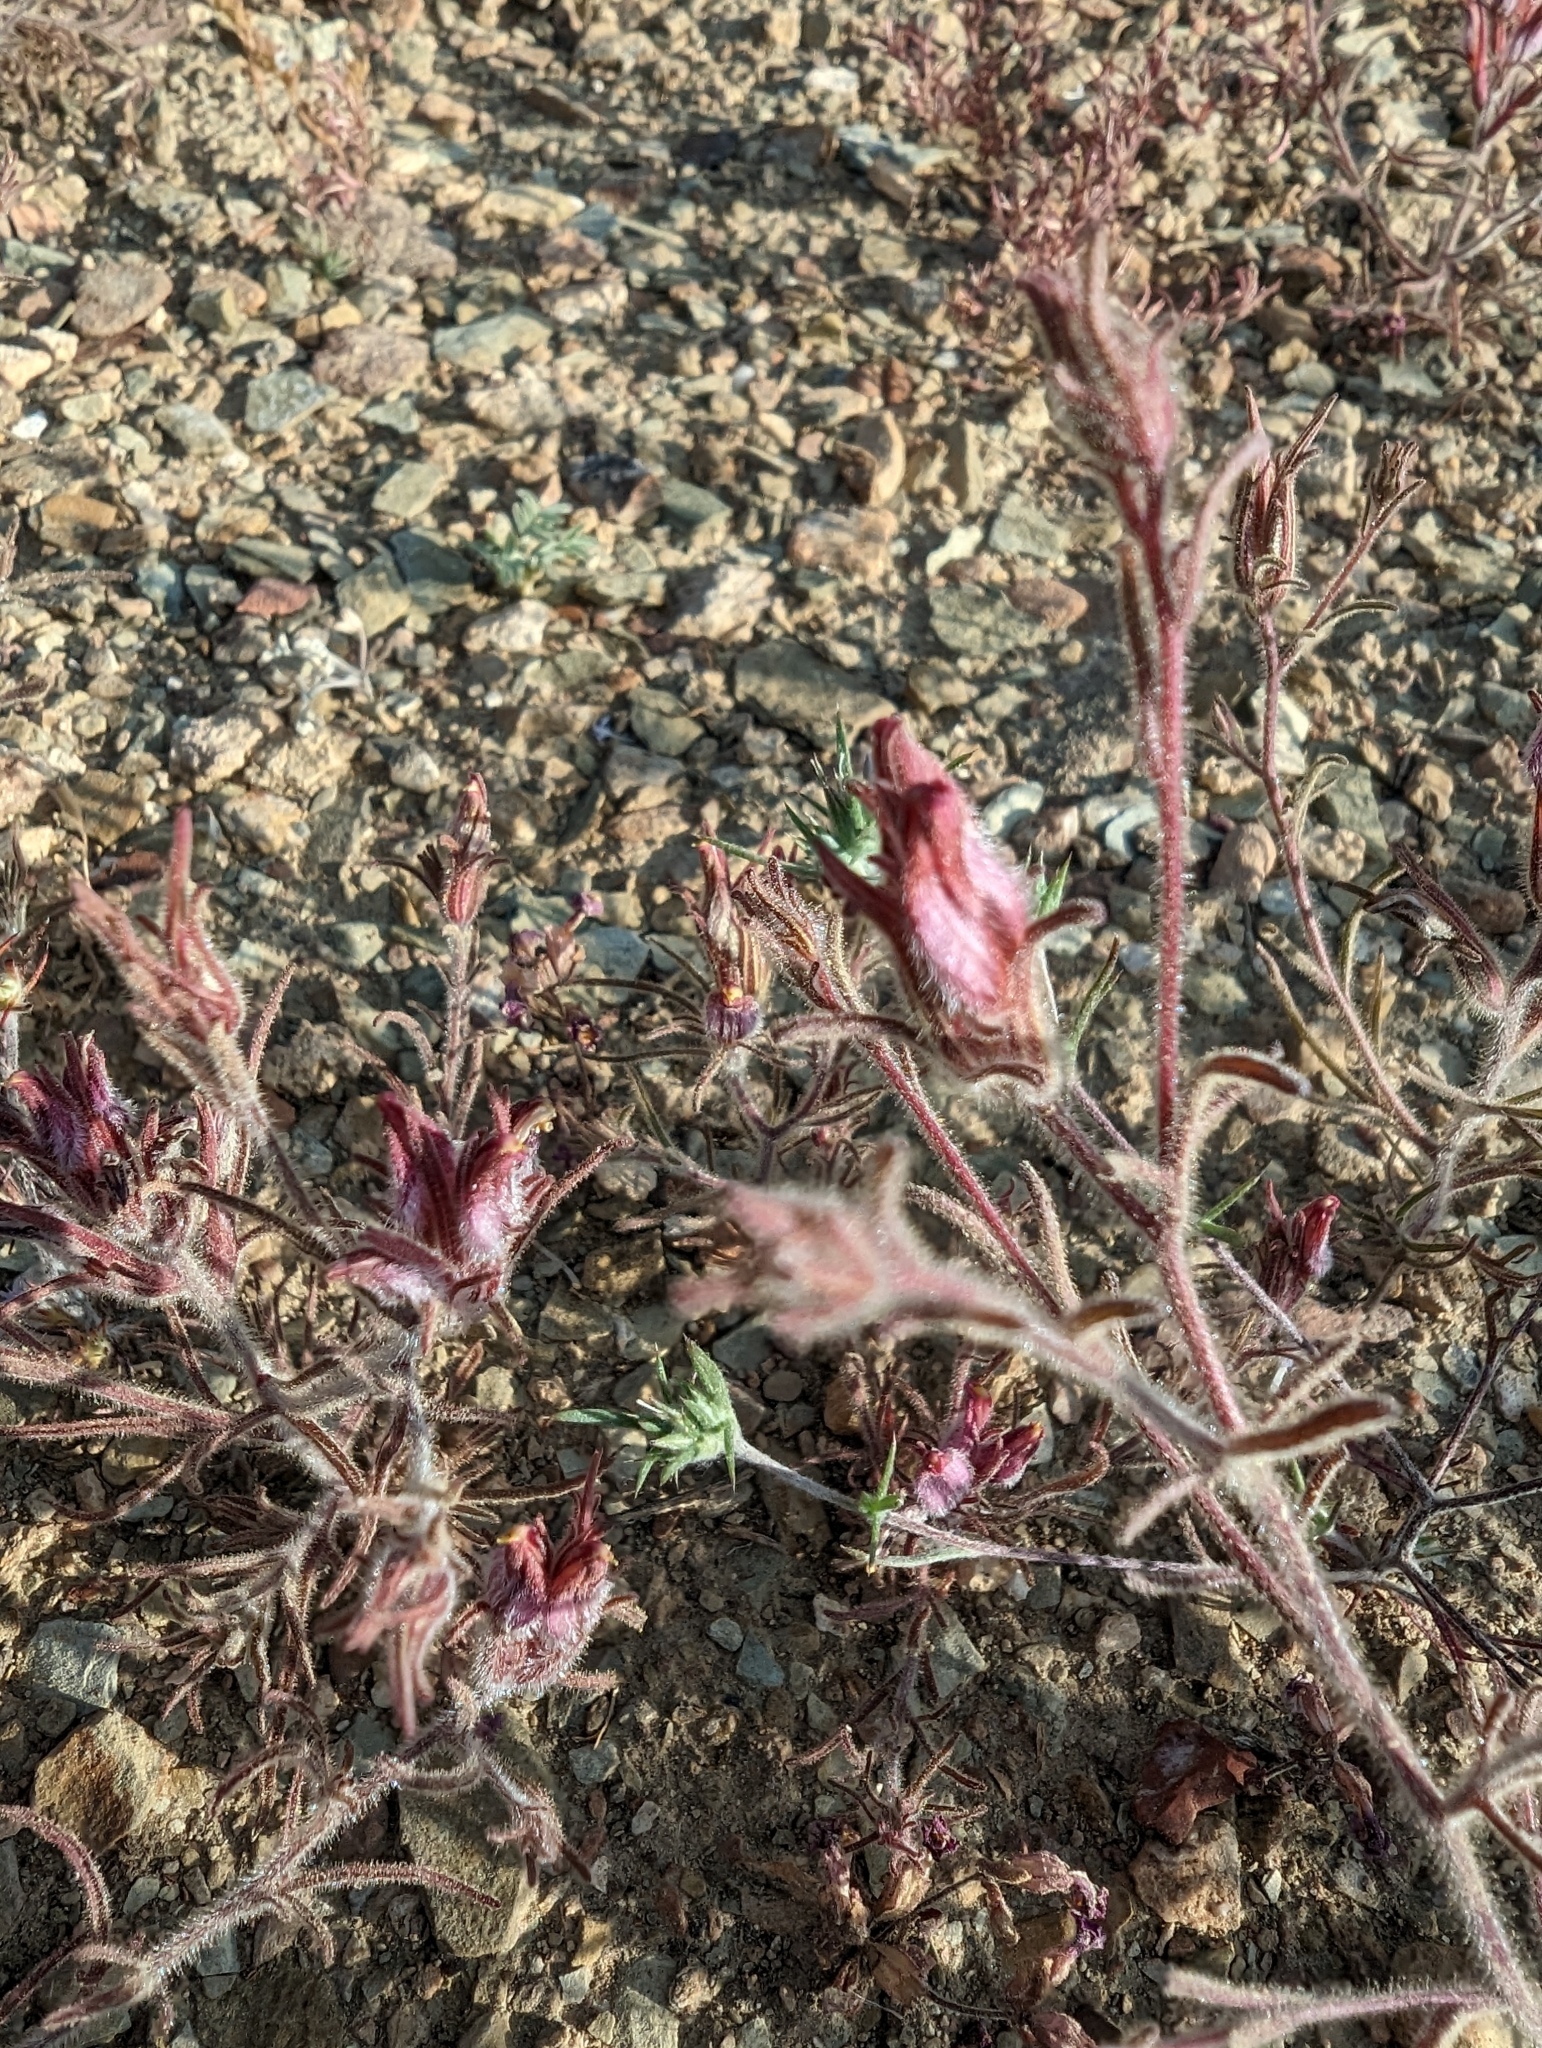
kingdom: Plantae
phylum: Tracheophyta
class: Magnoliopsida
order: Lamiales
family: Orobanchaceae
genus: Cordylanthus
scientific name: Cordylanthus kingii
